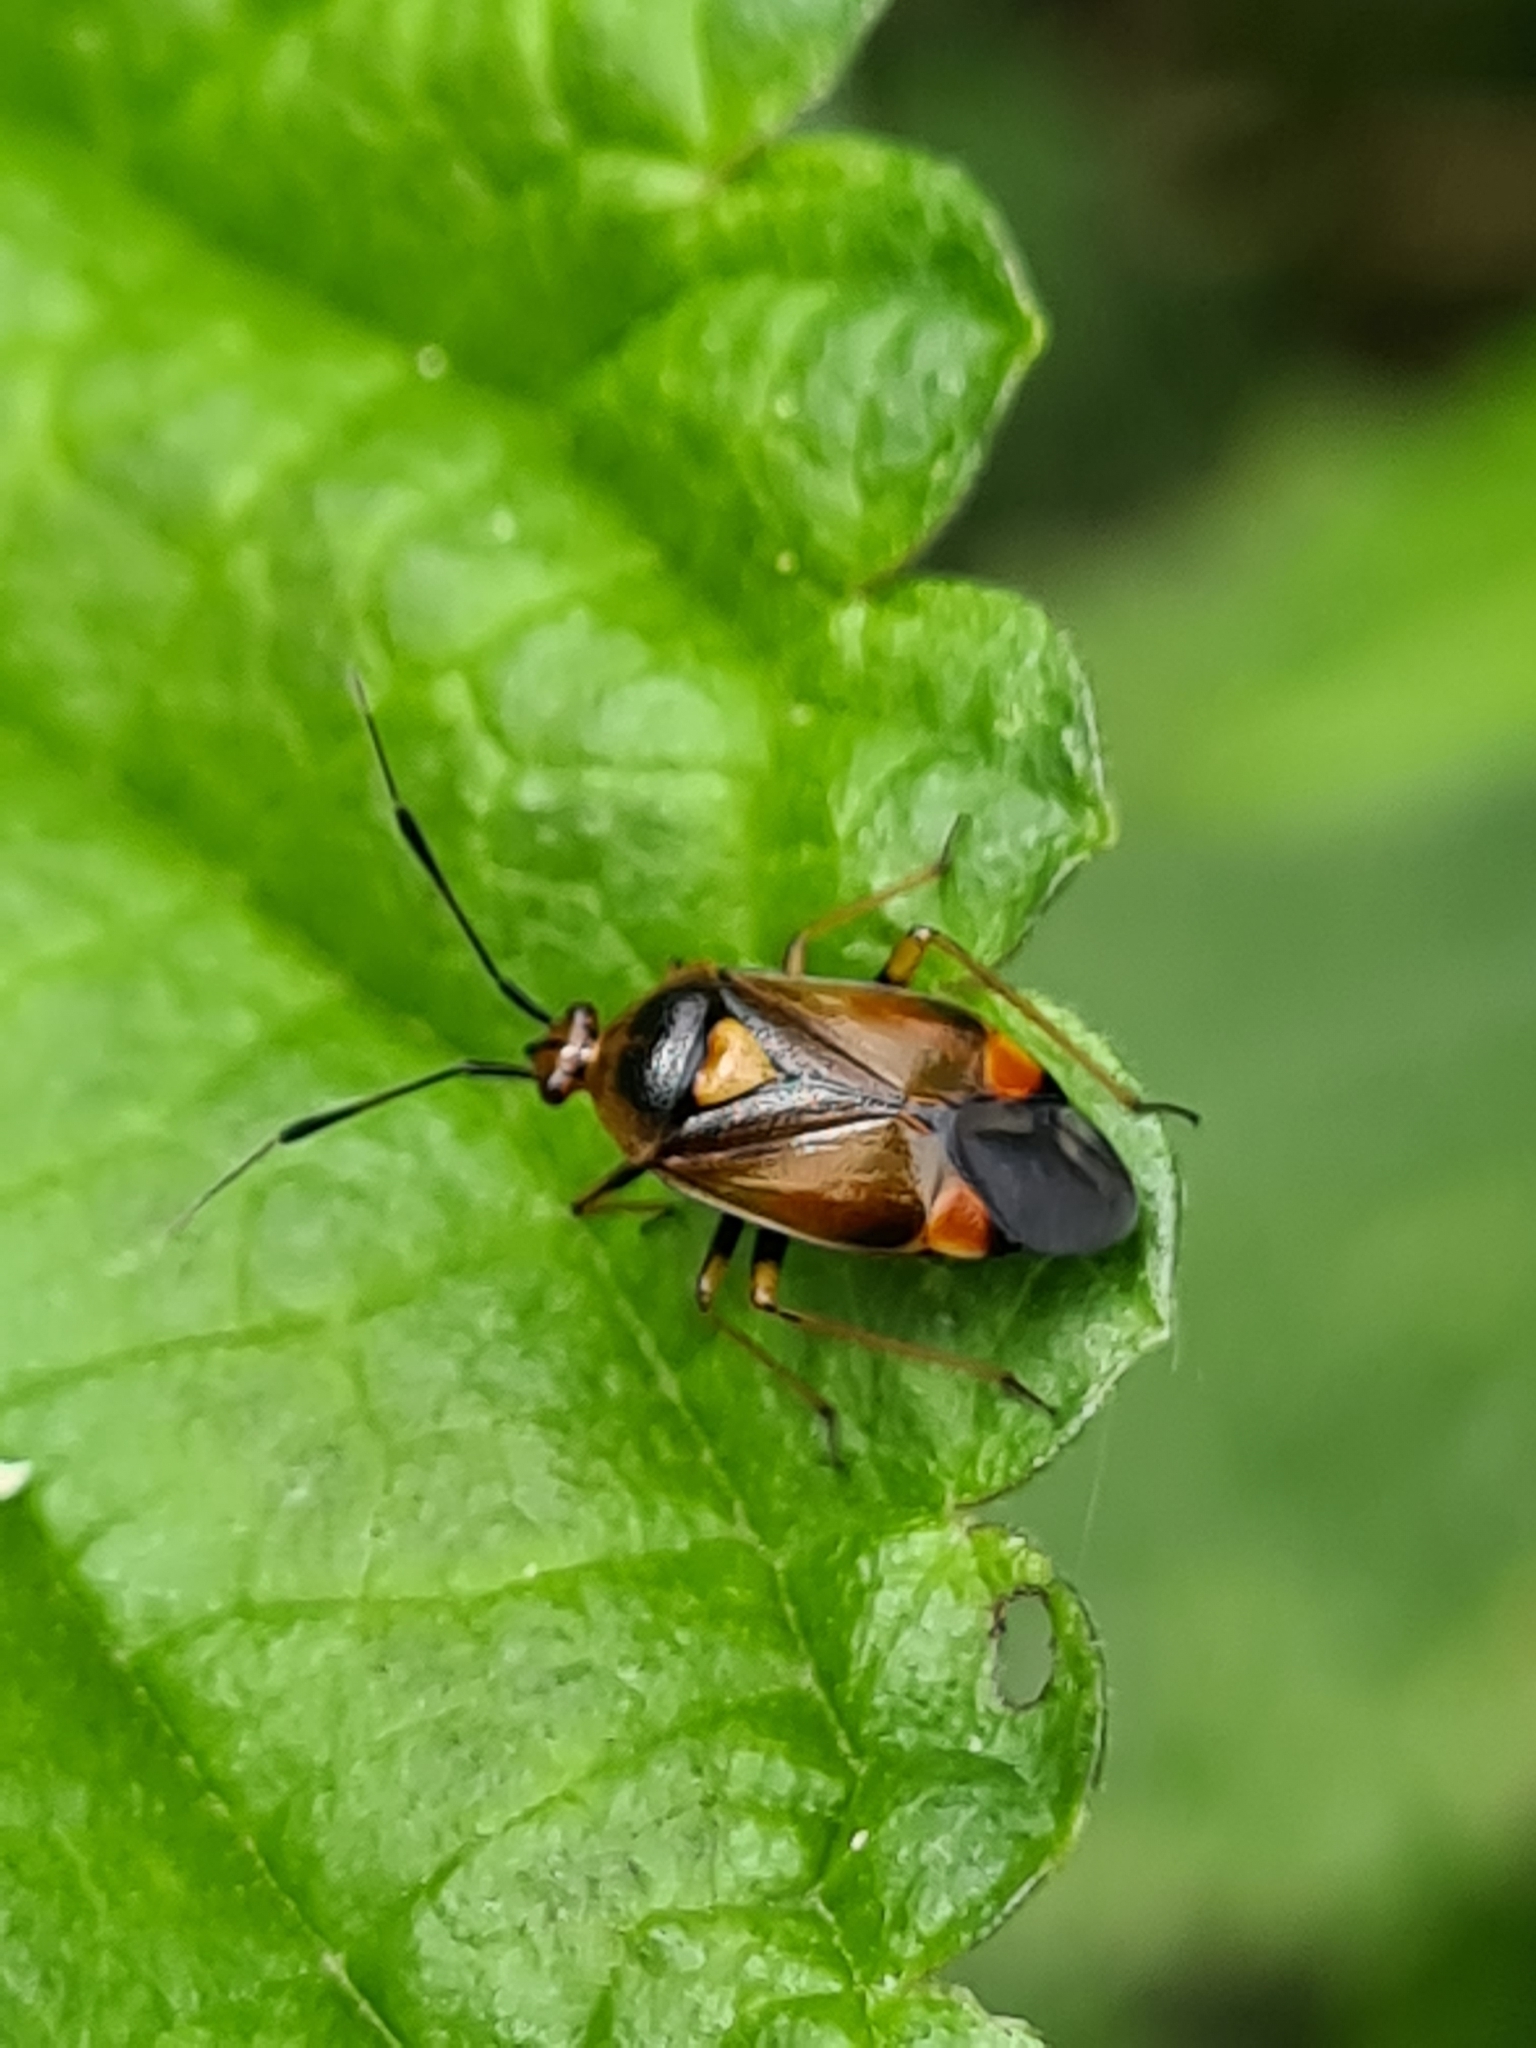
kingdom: Animalia
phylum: Arthropoda
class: Insecta
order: Hemiptera
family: Miridae
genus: Deraeocoris
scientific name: Deraeocoris ruber
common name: Plant bug
